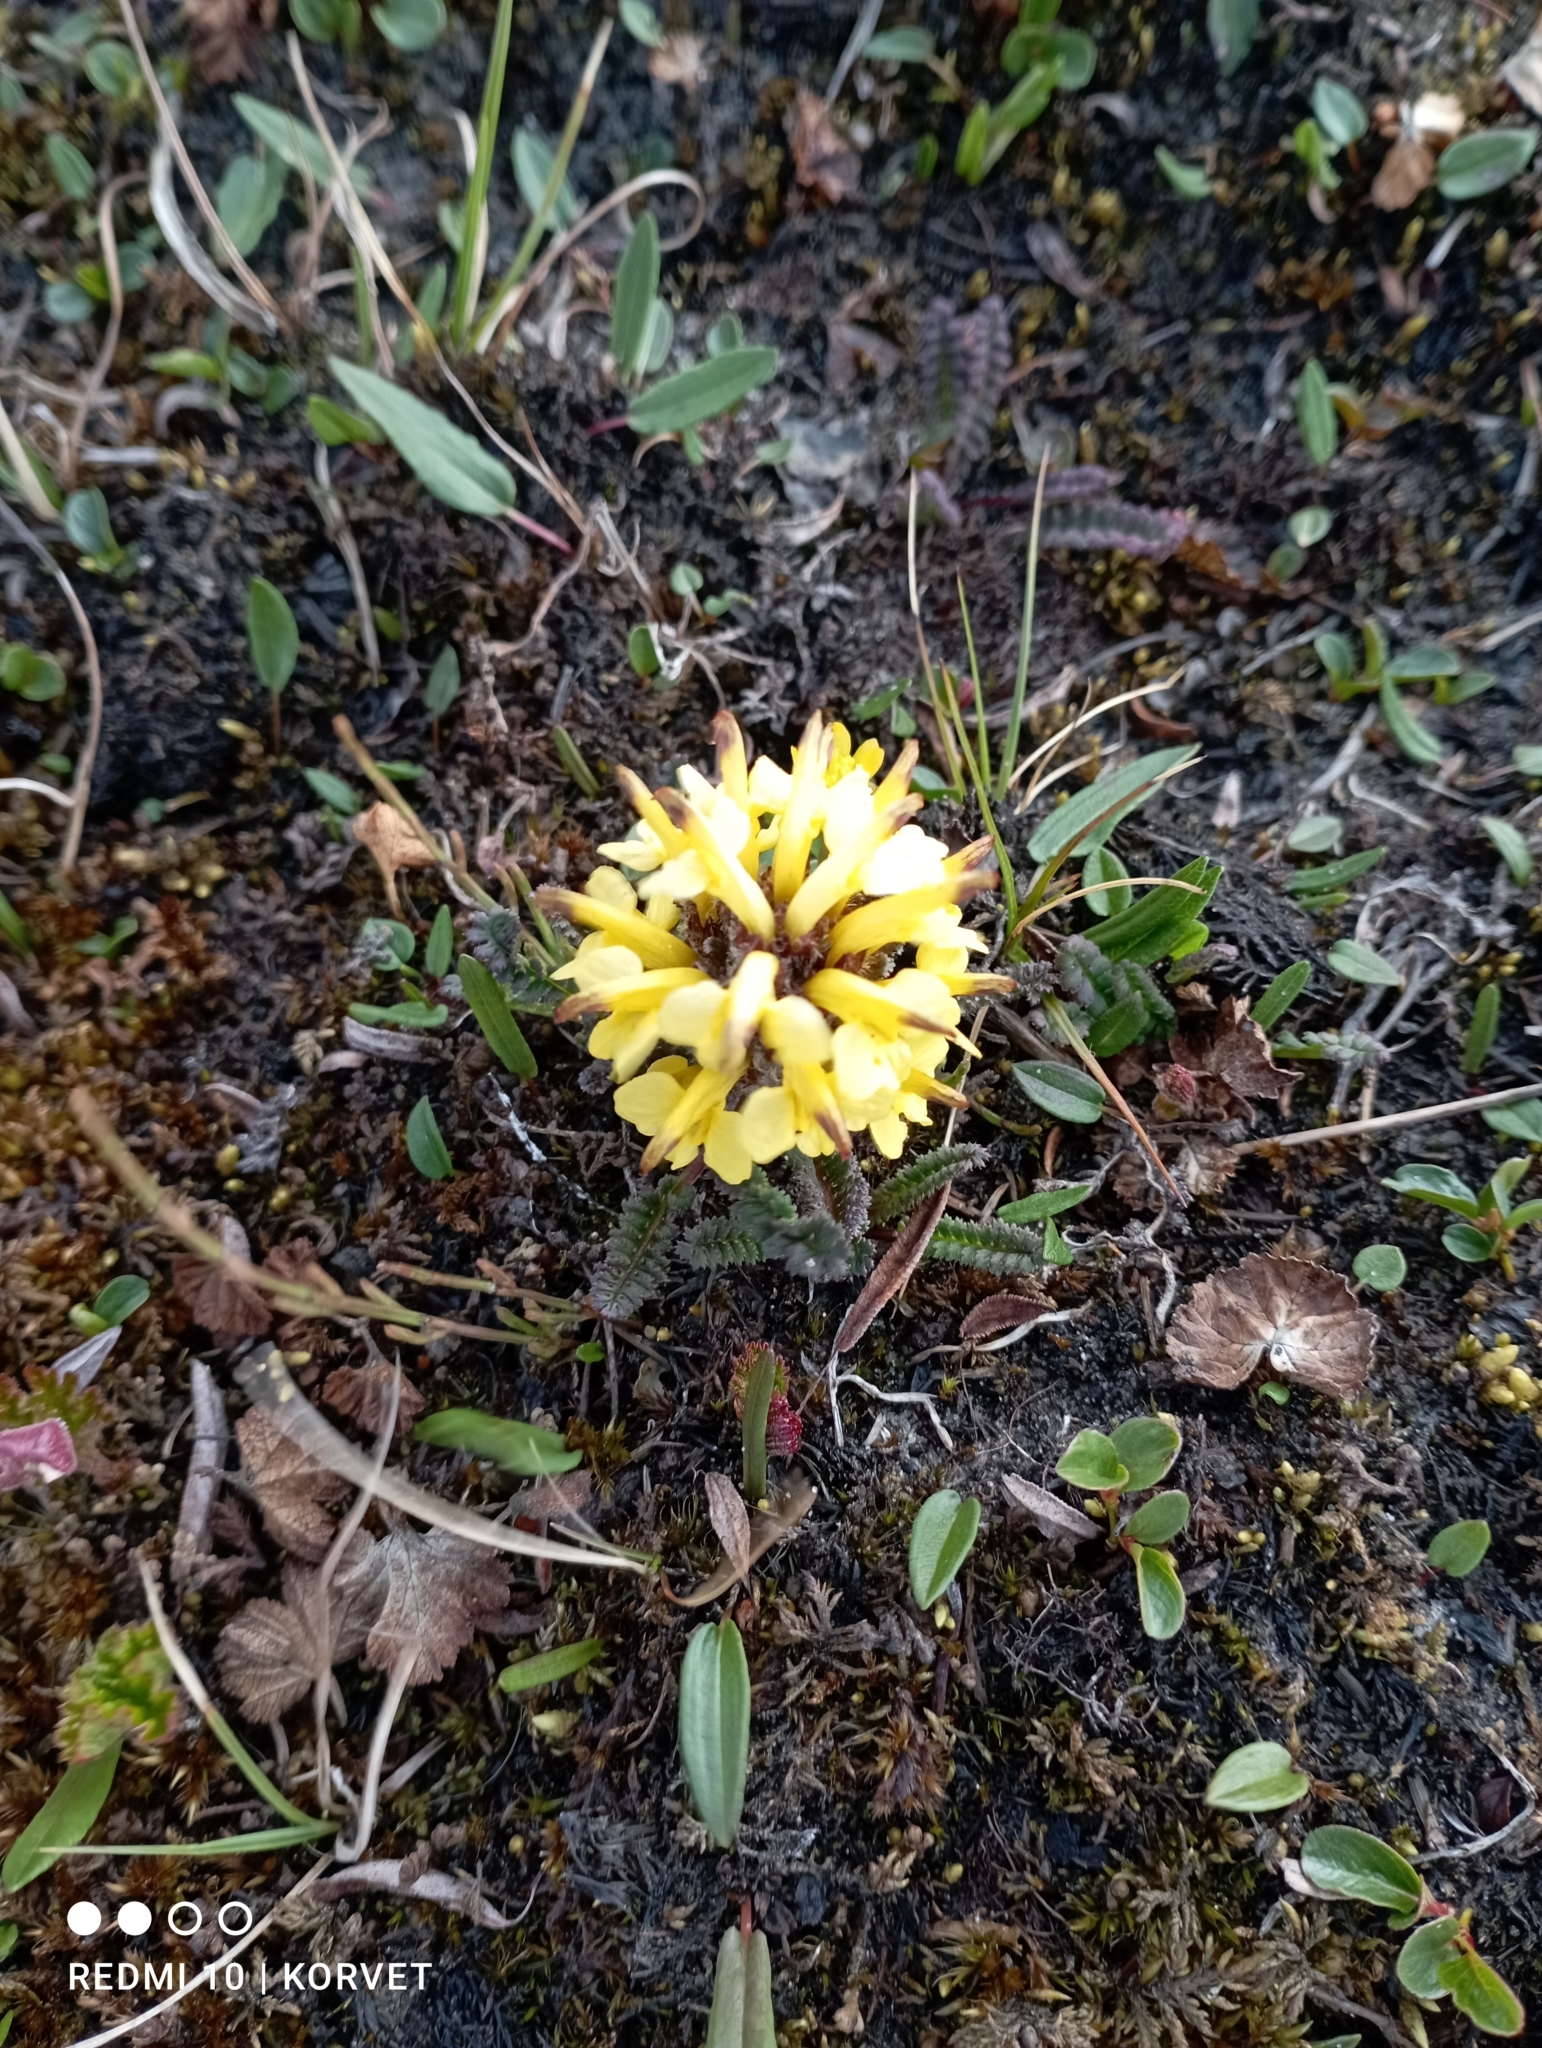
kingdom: Plantae
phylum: Tracheophyta
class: Magnoliopsida
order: Lamiales
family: Orobanchaceae
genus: Pedicularis
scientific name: Pedicularis oederi
